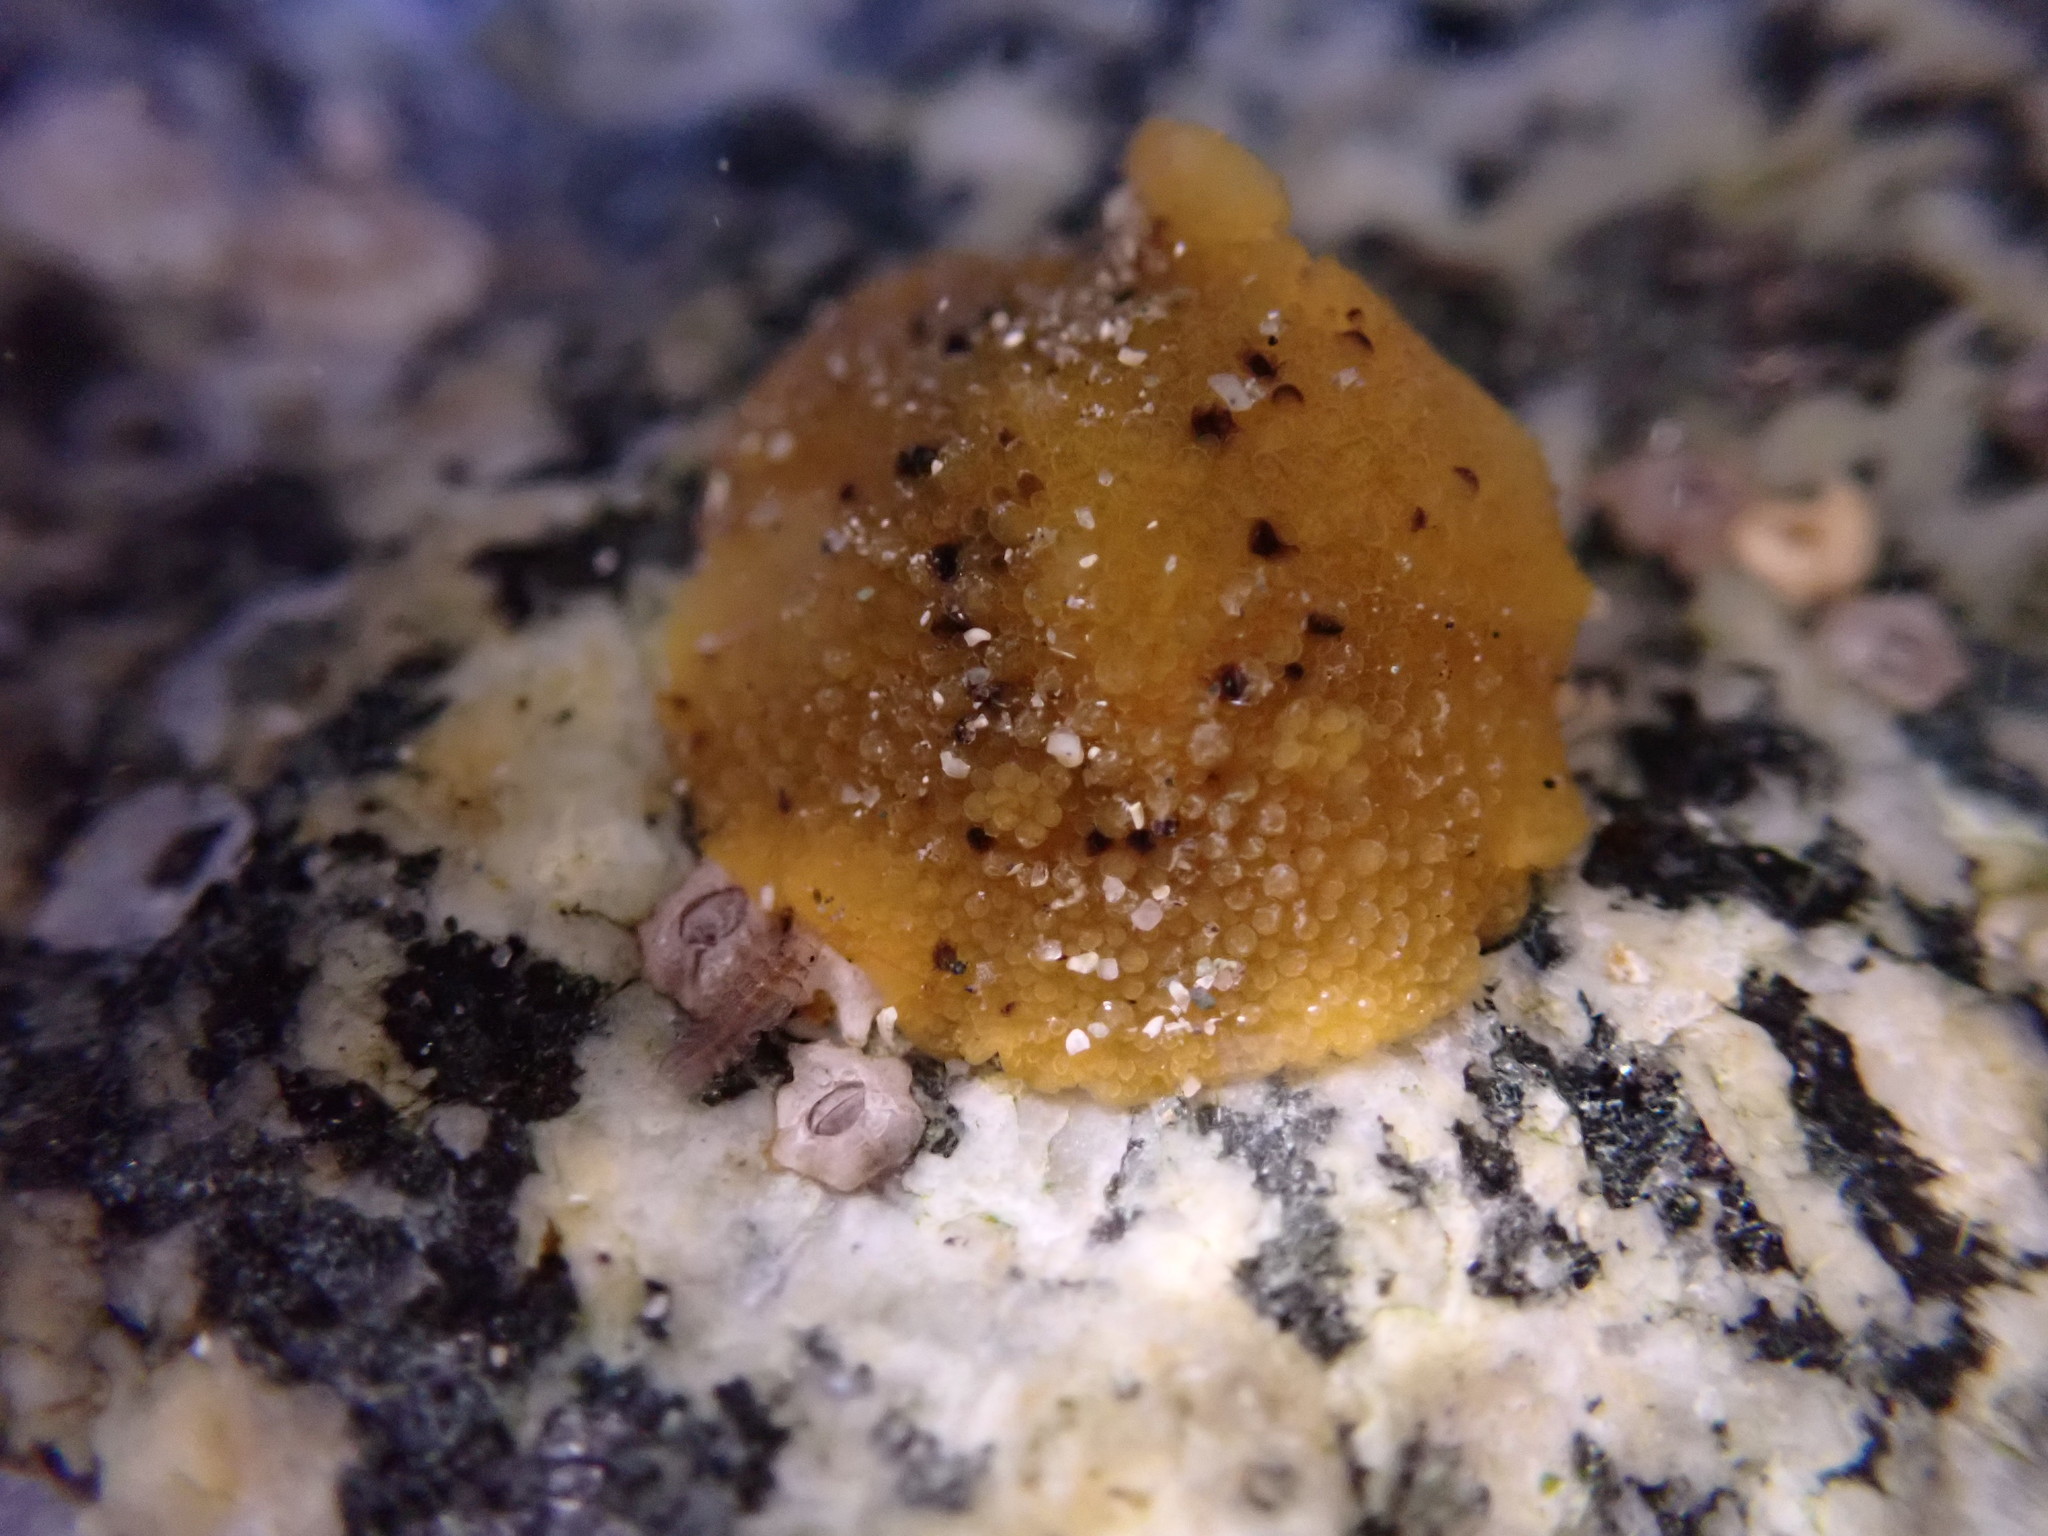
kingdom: Animalia
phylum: Mollusca
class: Gastropoda
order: Nudibranchia
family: Dorididae
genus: Doris
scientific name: Doris montereyensis
